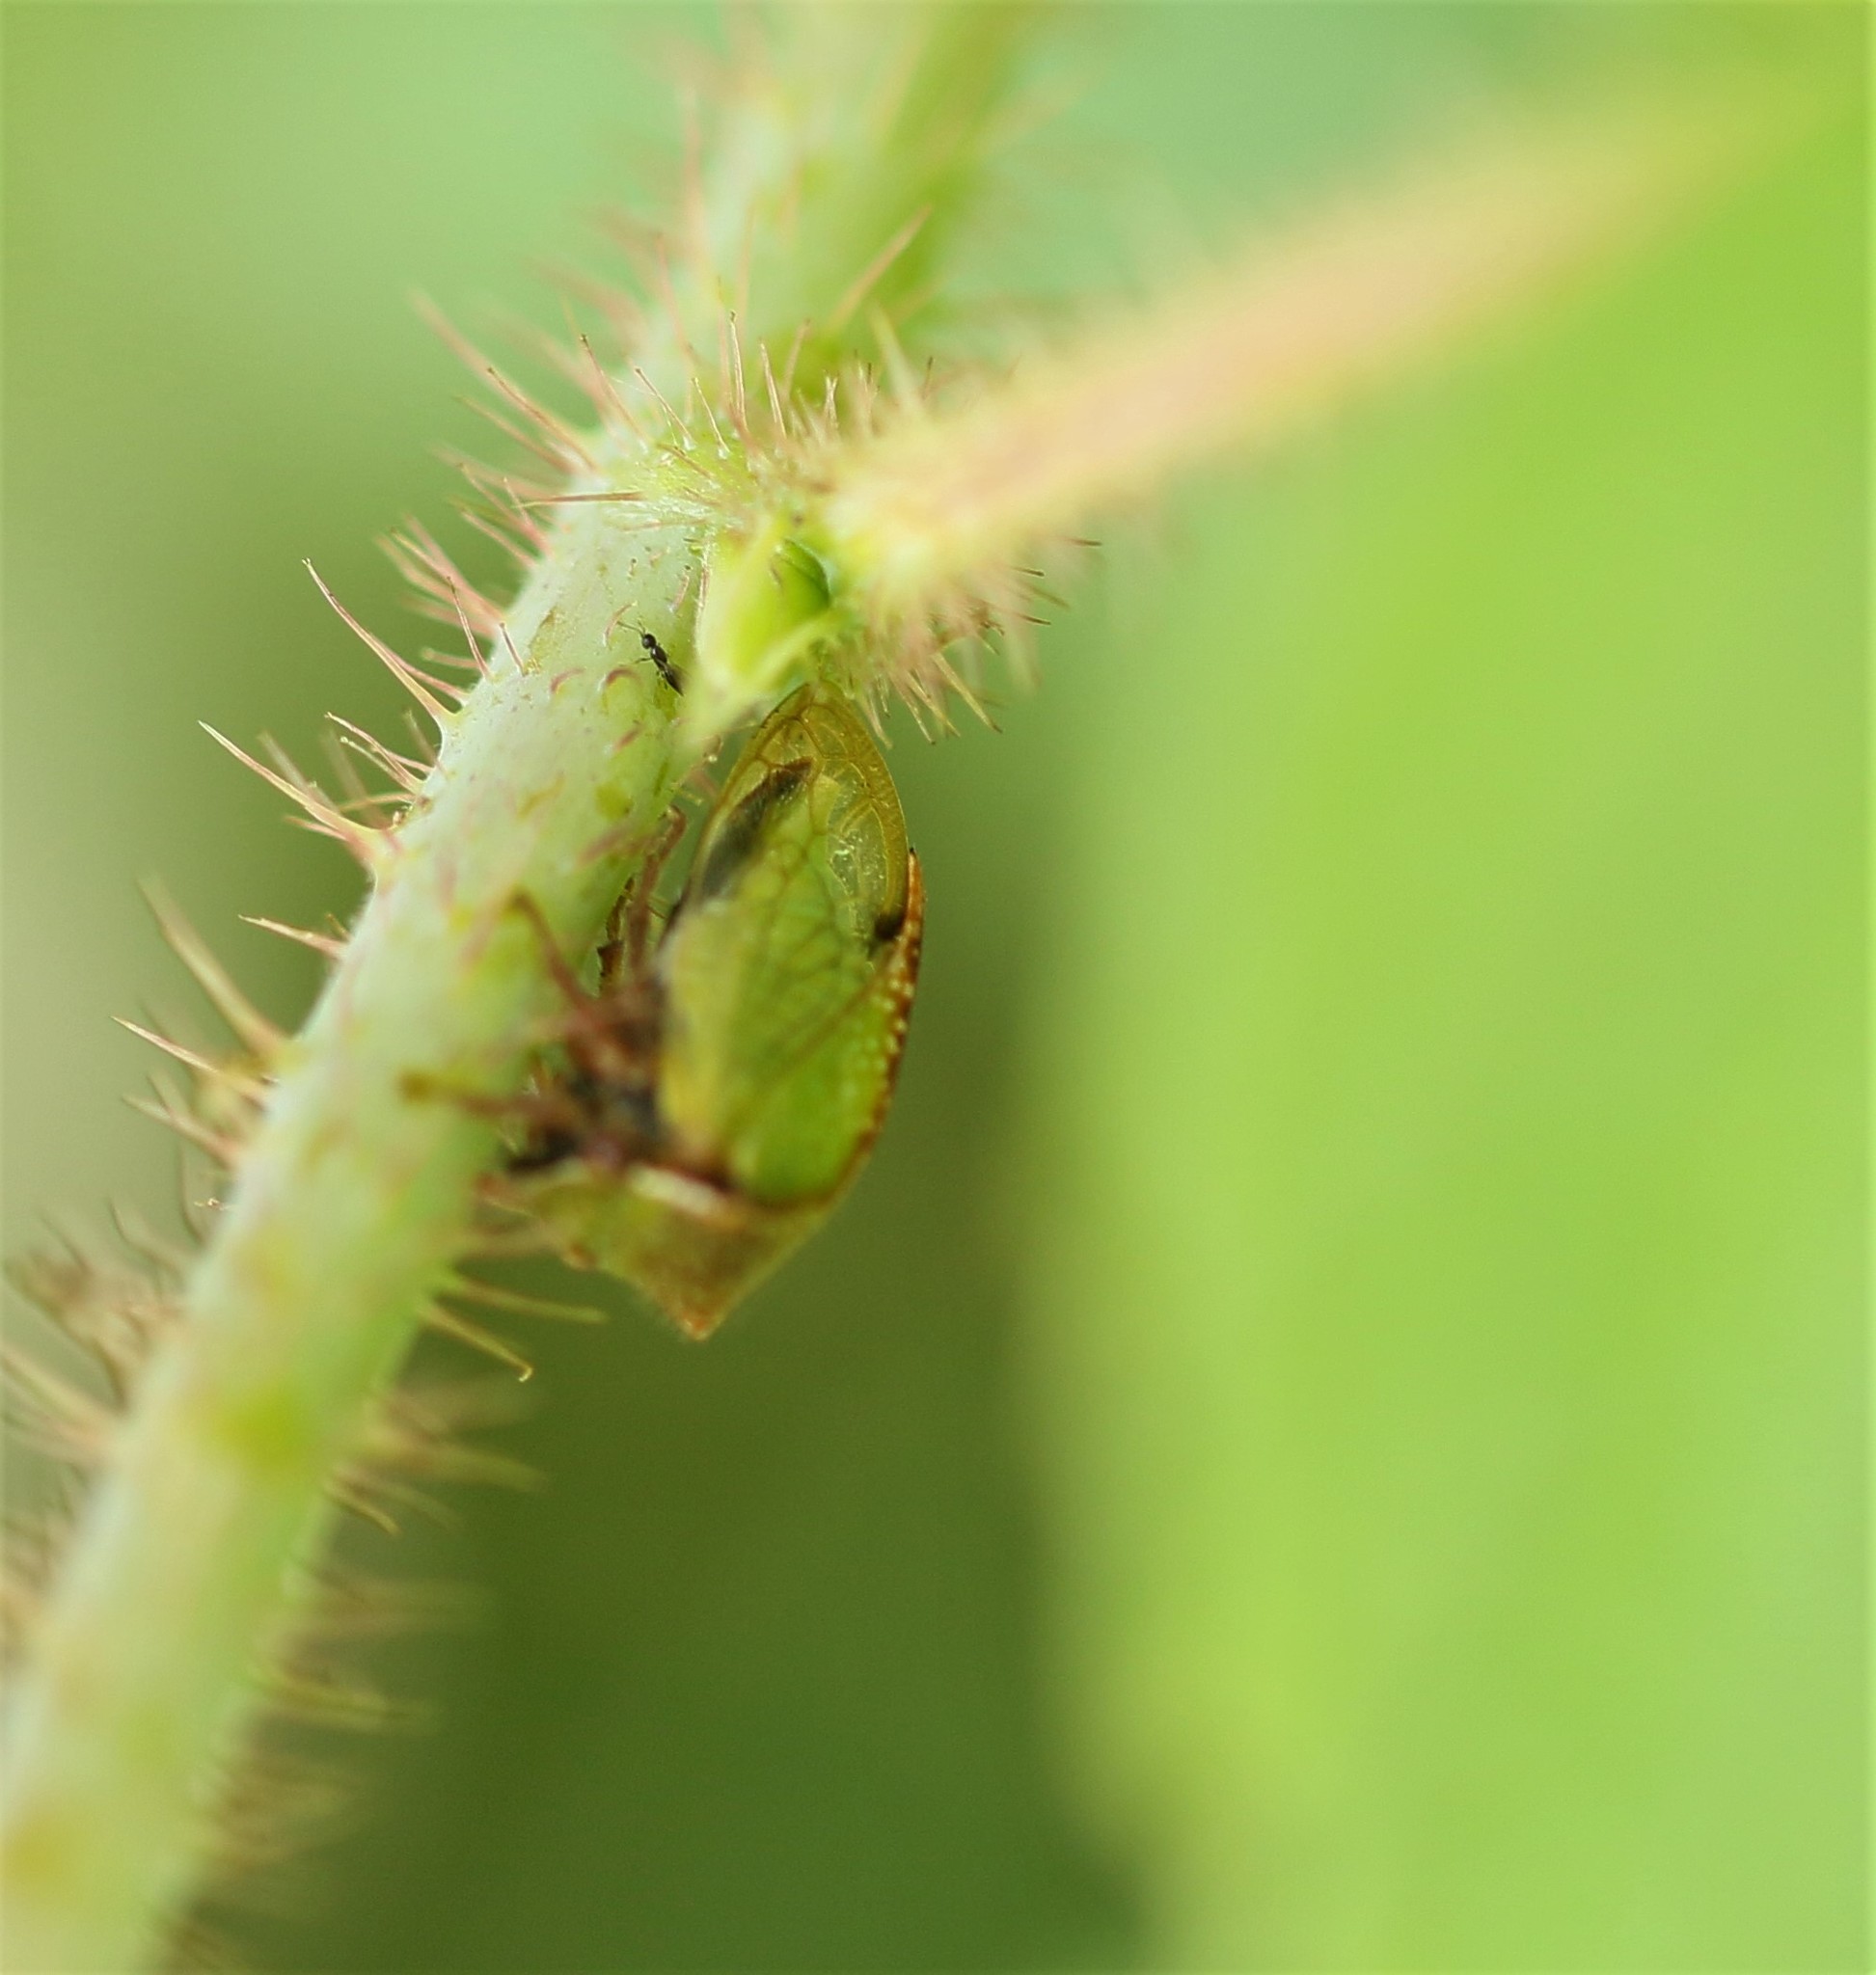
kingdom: Animalia
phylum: Arthropoda
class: Insecta
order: Hemiptera
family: Membracidae
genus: Stictocephala
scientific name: Stictocephala basalis
